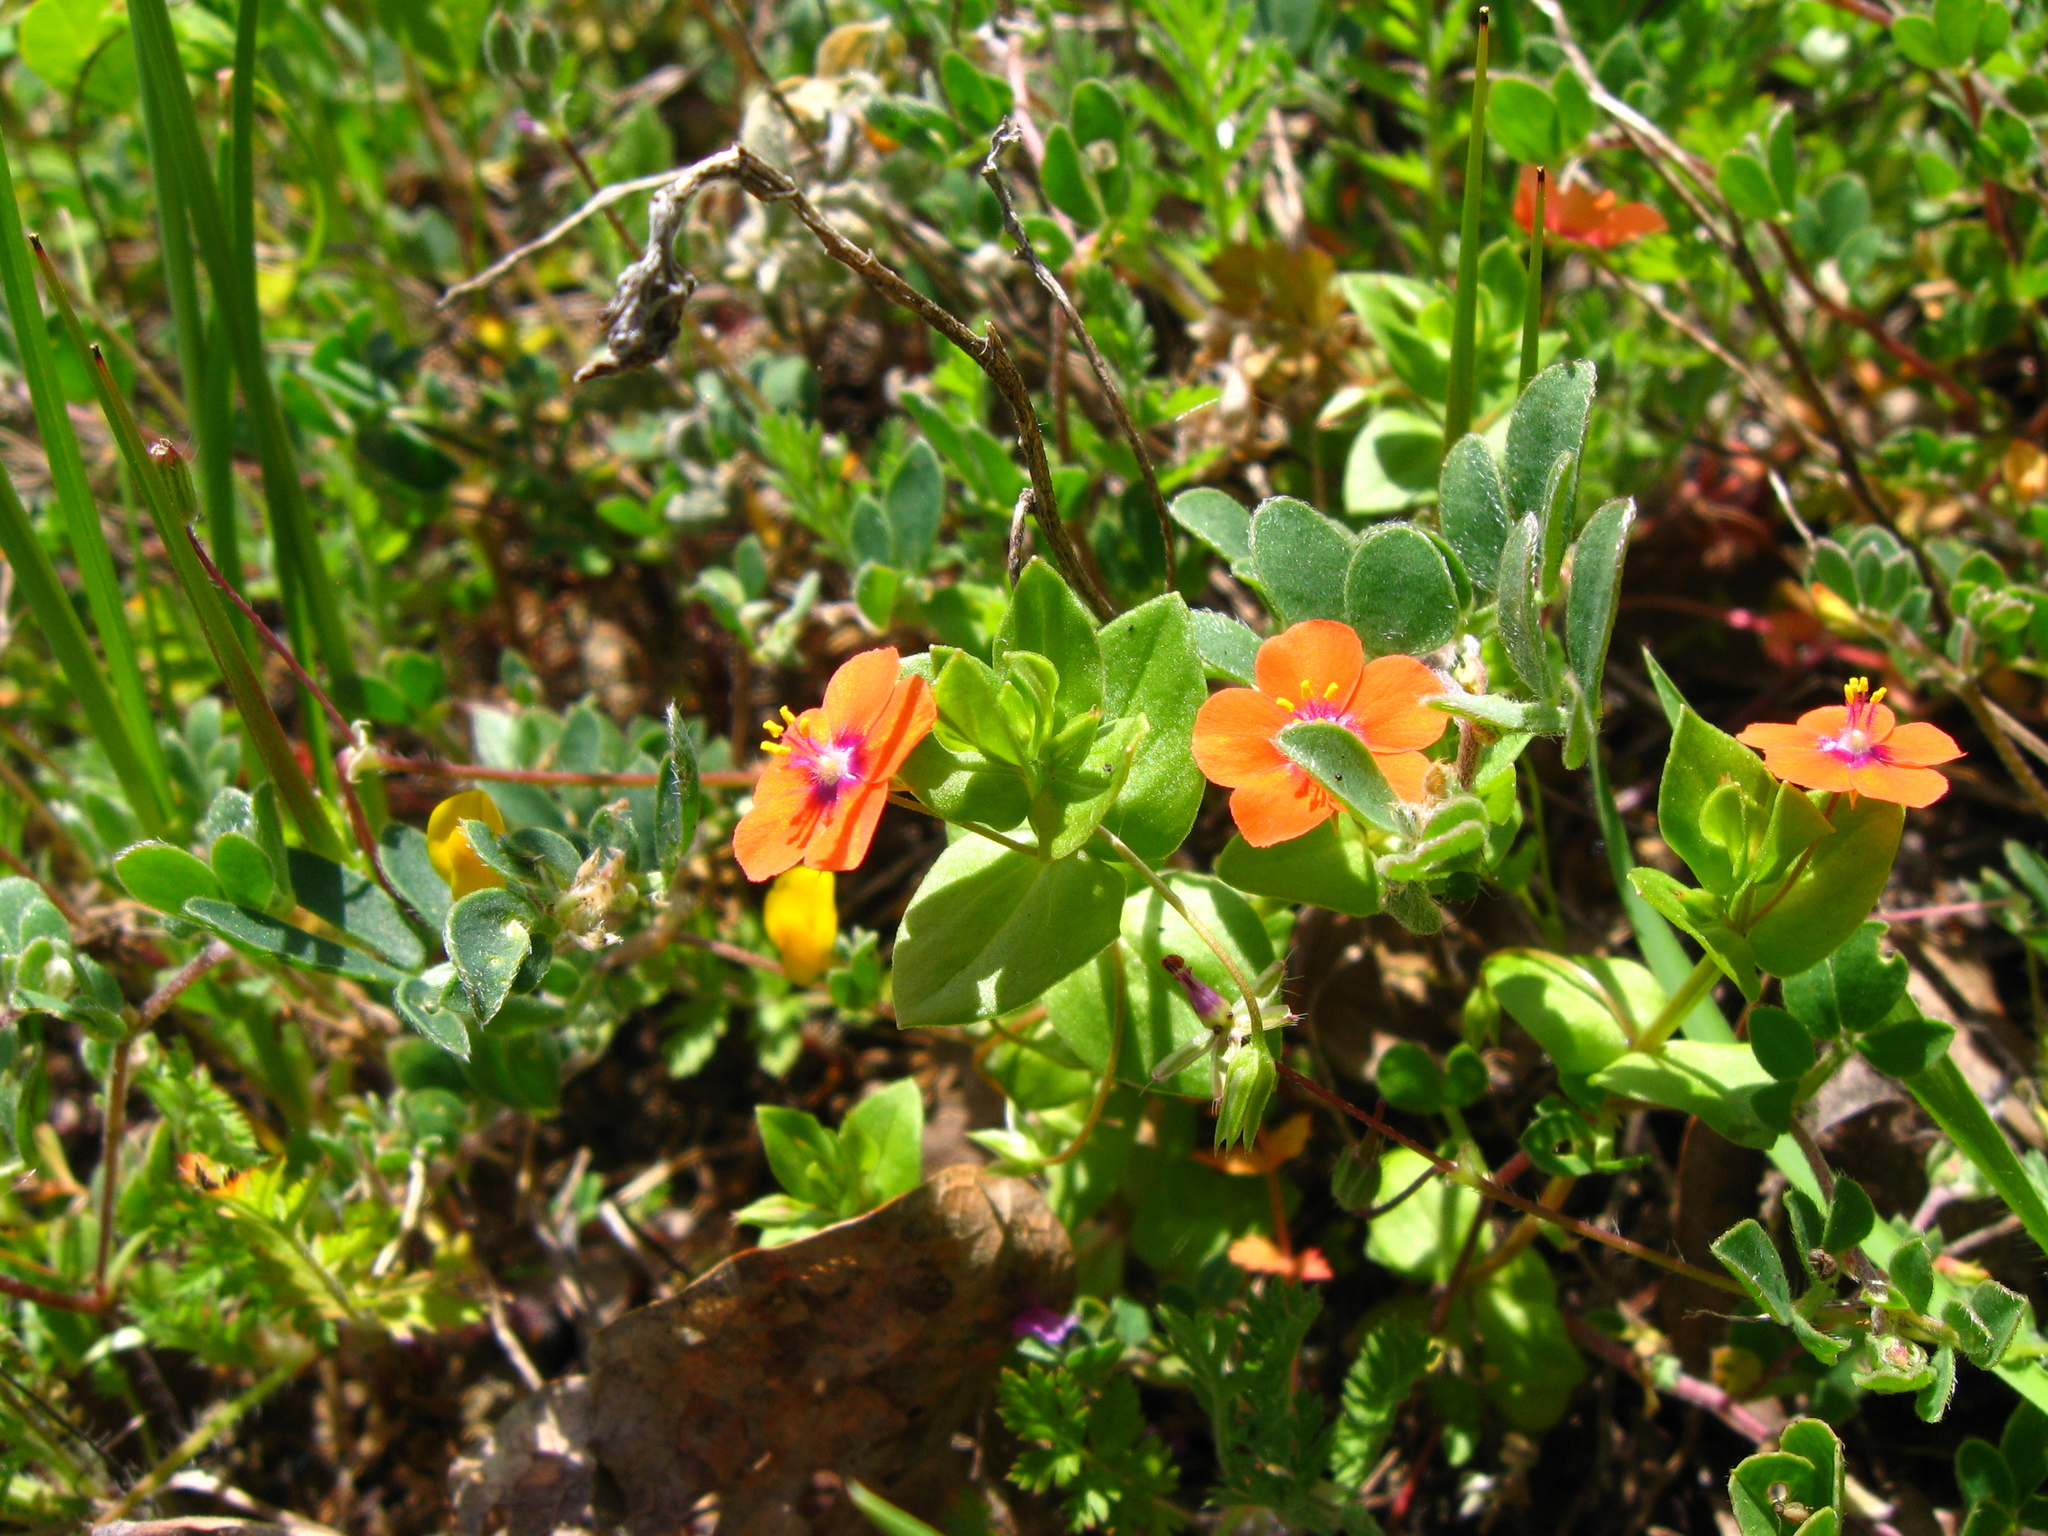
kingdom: Plantae
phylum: Tracheophyta
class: Magnoliopsida
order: Ericales
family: Primulaceae
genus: Lysimachia
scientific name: Lysimachia arvensis
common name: Scarlet pimpernel
